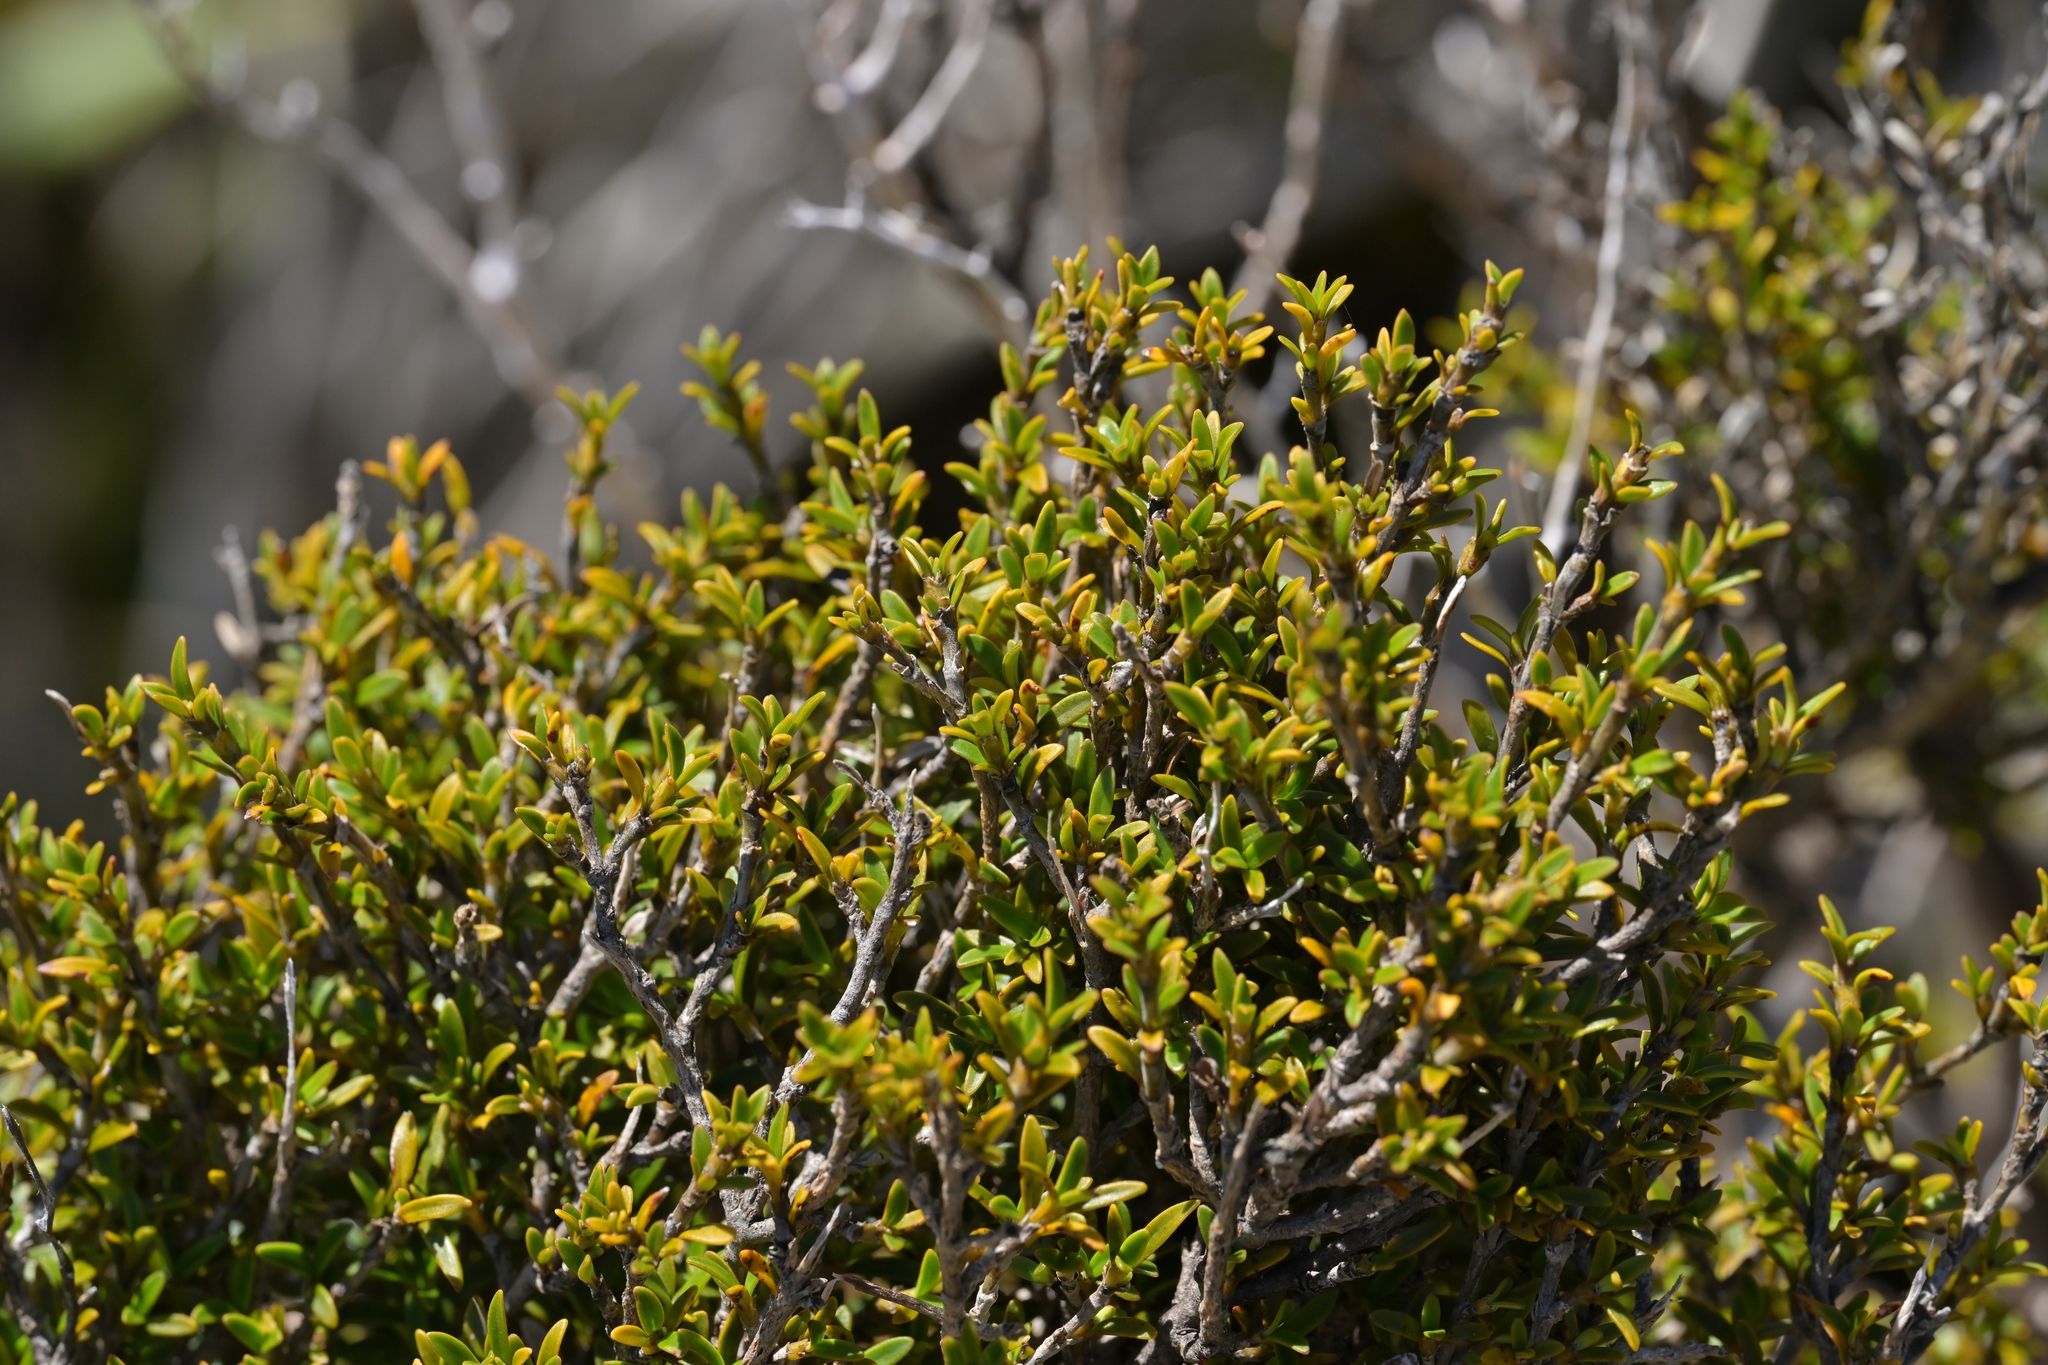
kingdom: Plantae
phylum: Tracheophyta
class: Magnoliopsida
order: Gentianales
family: Rubiaceae
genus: Coprosma
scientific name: Coprosma pseudocuneata
